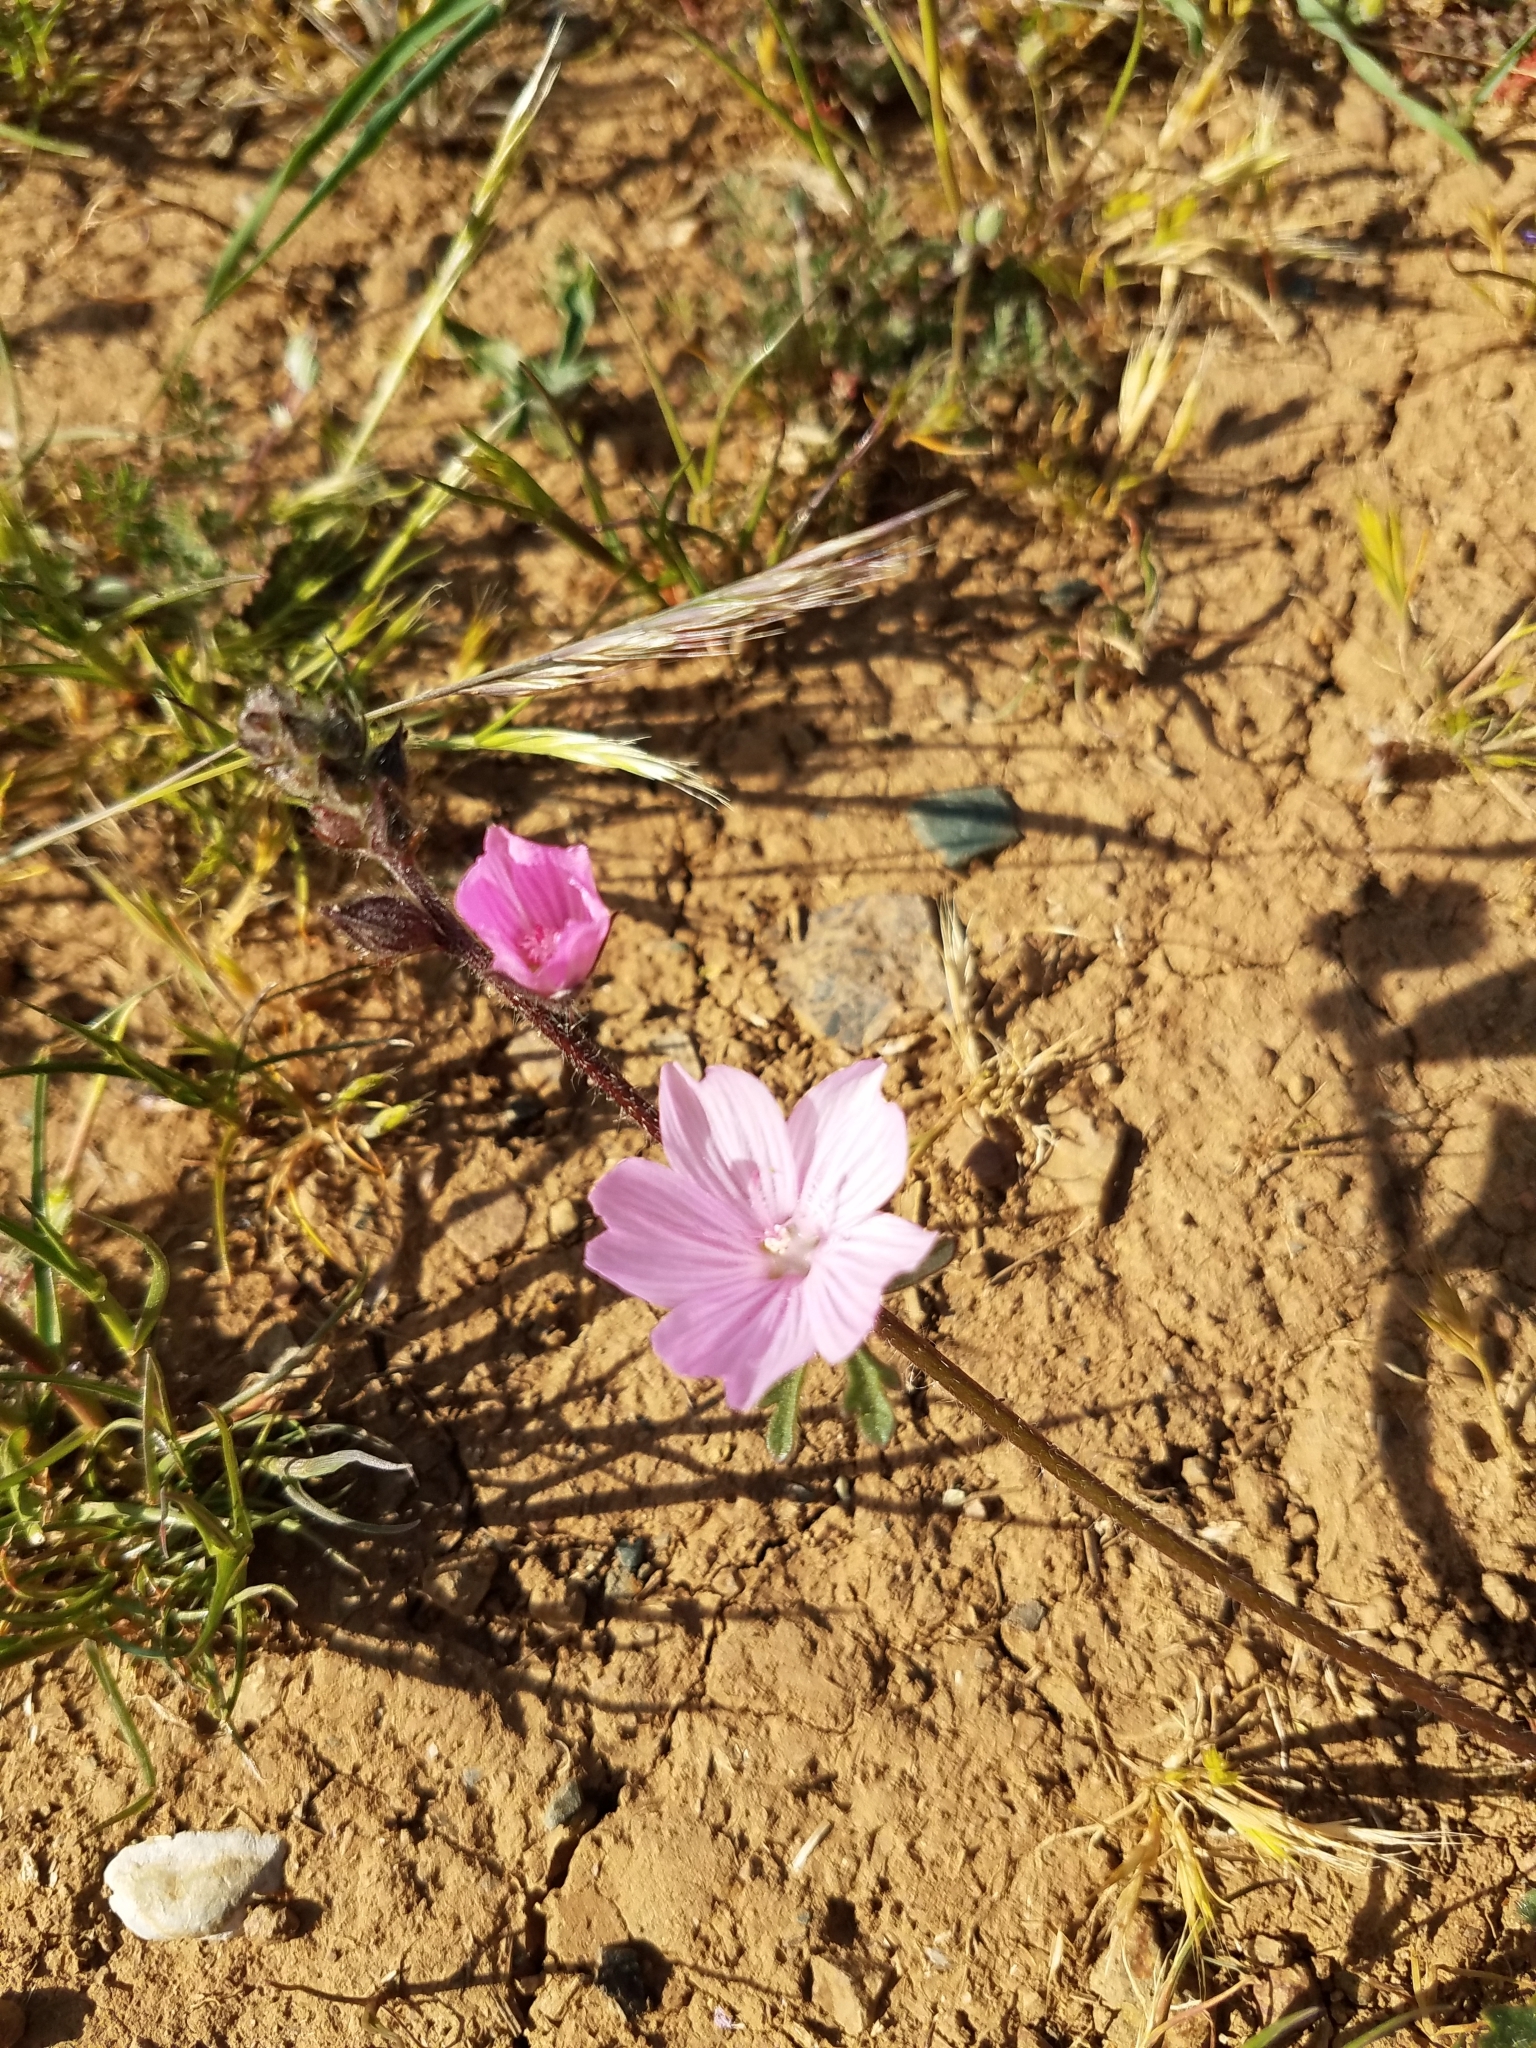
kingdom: Plantae
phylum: Tracheophyta
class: Magnoliopsida
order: Malvales
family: Malvaceae
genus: Sidalcea
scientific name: Sidalcea malviflora
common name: Greek mallow
